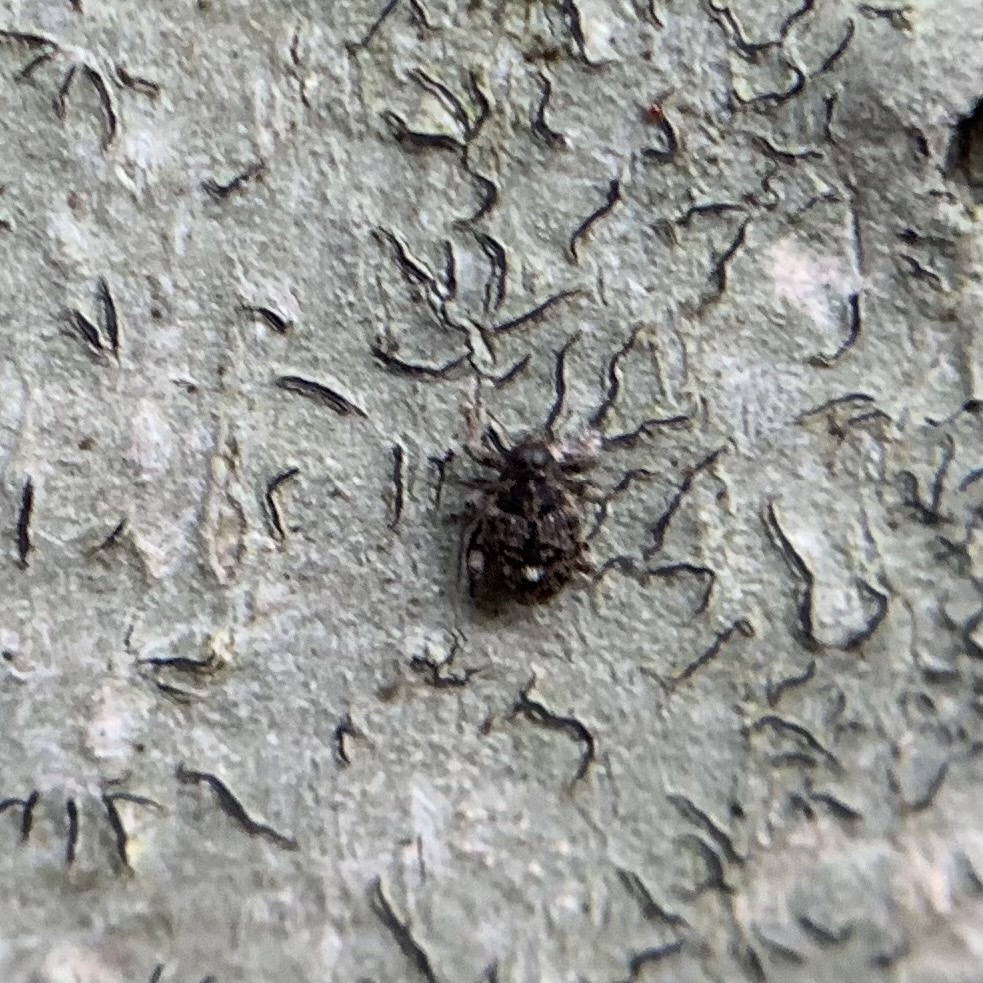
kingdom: Animalia
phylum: Arthropoda
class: Insecta
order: Coleoptera
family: Curculionidae
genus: Lechriops
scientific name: Lechriops oculatus
